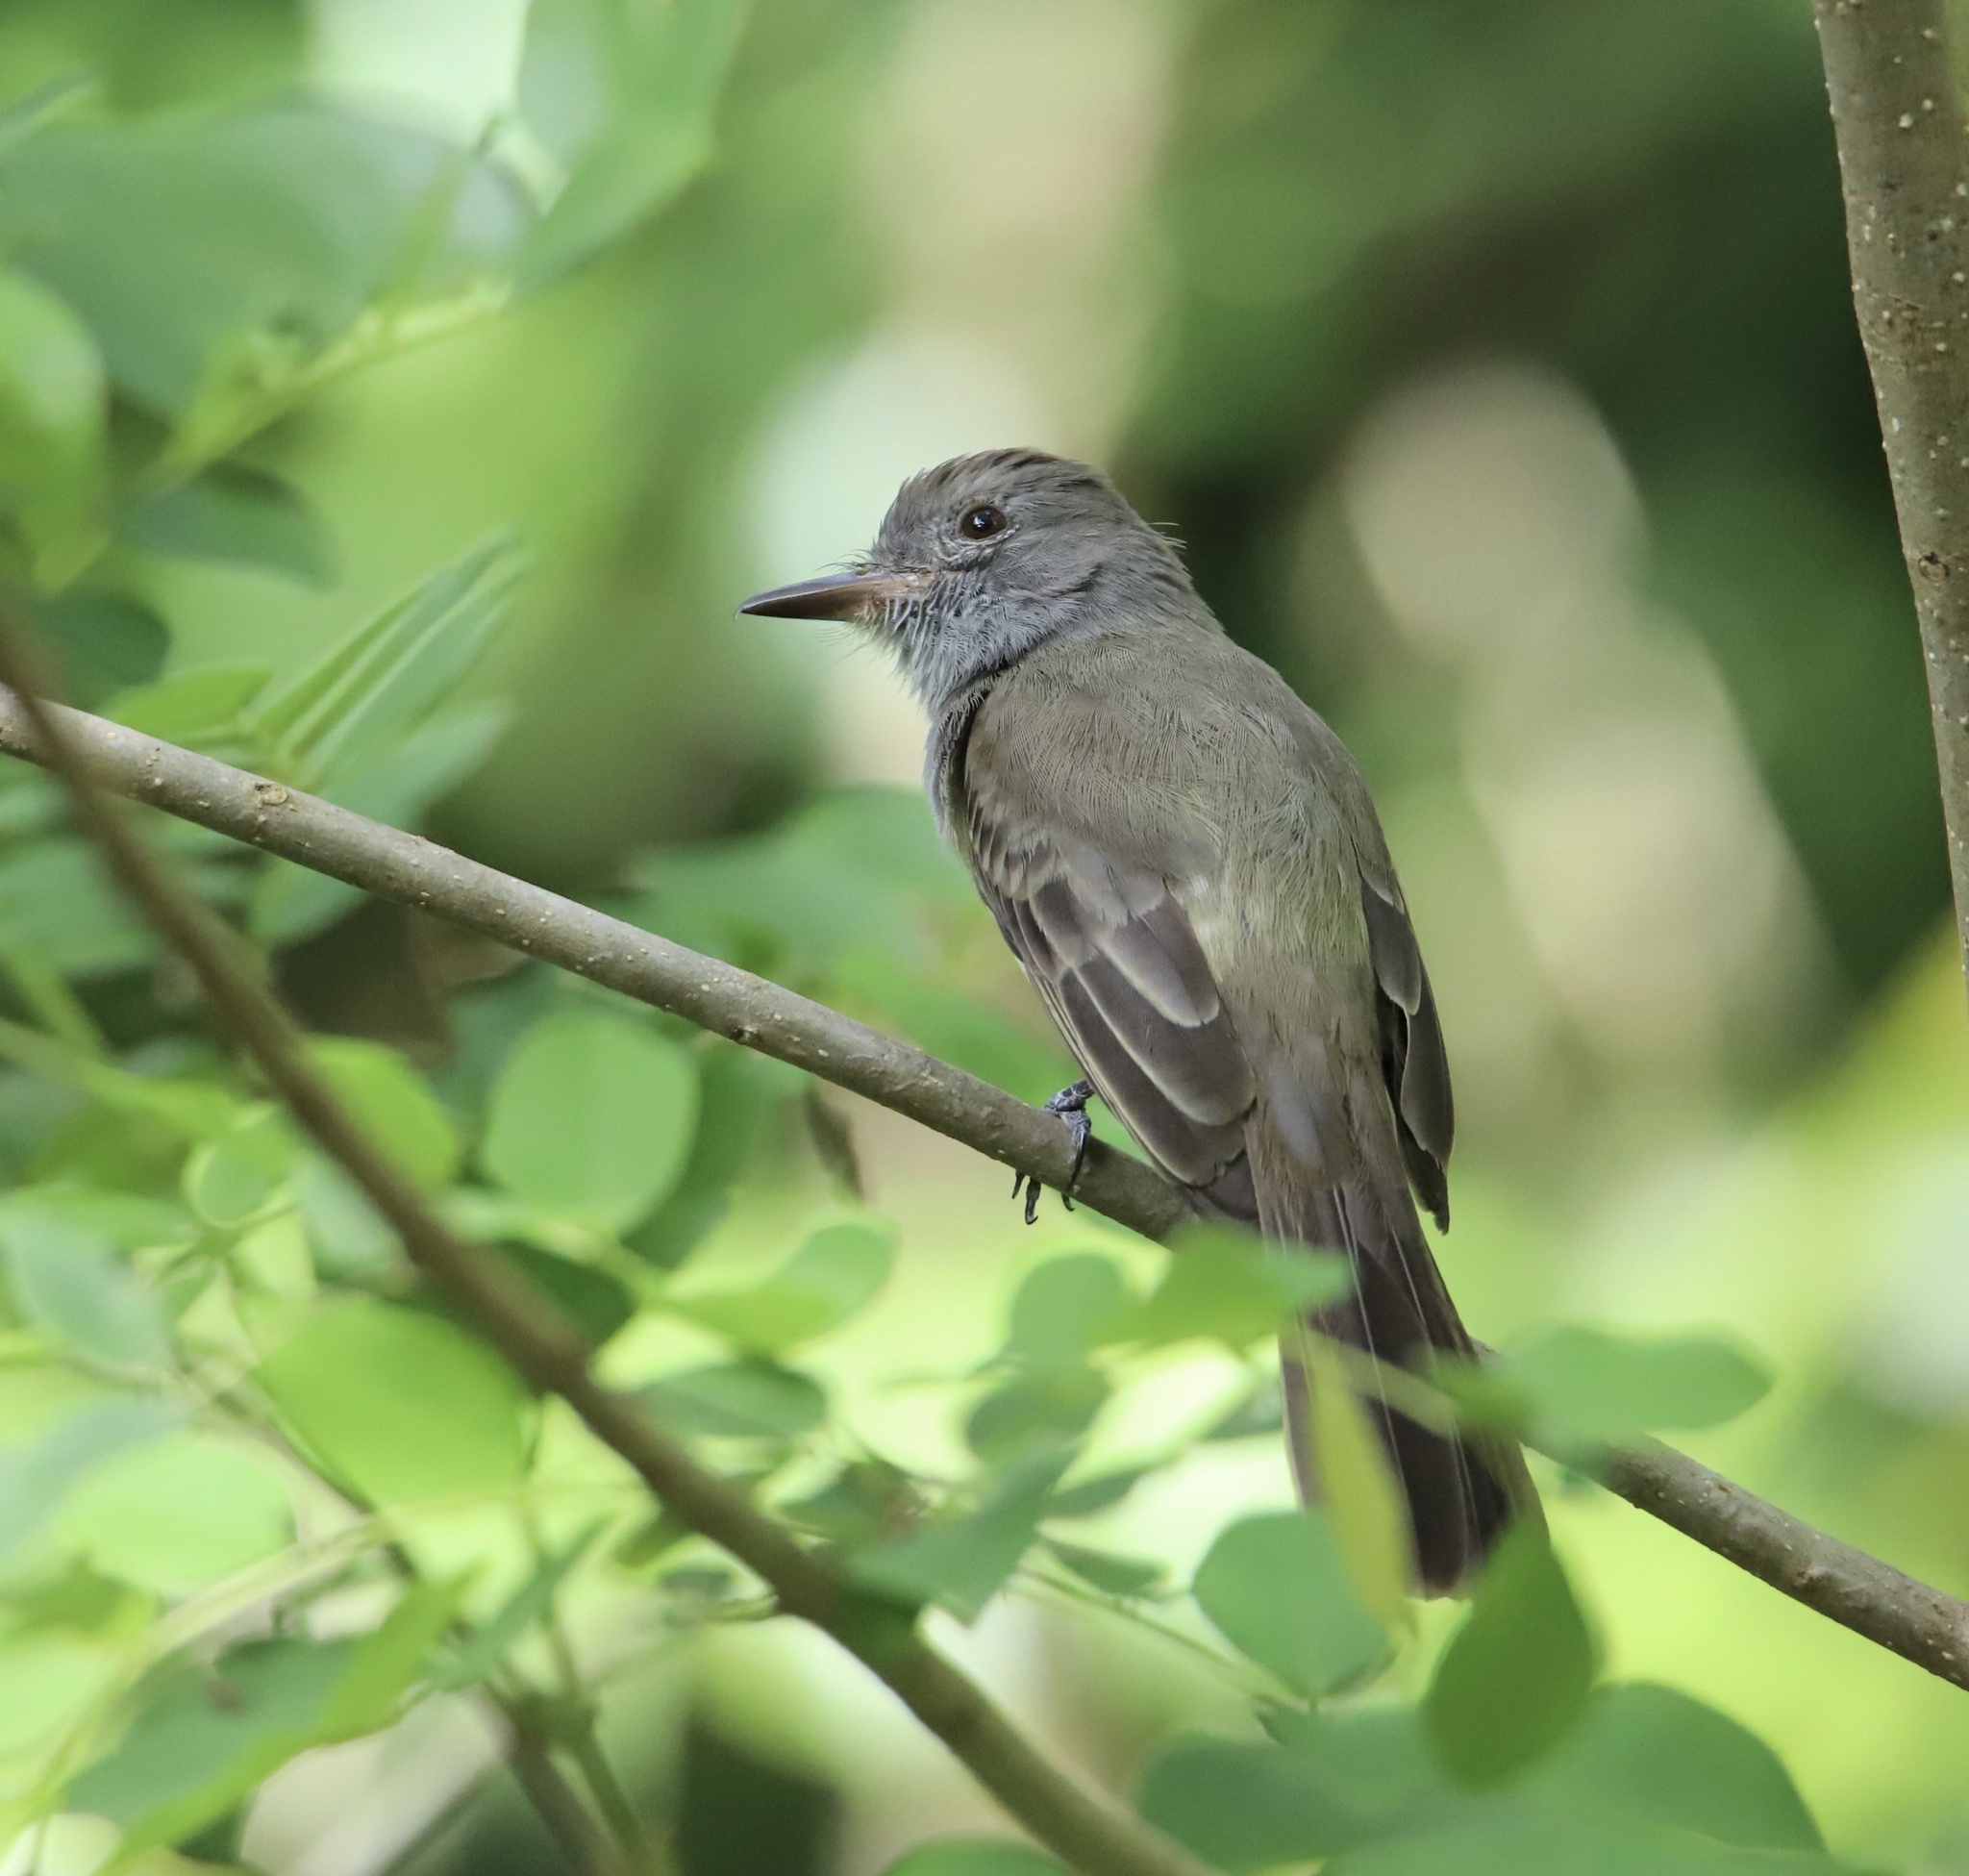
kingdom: Animalia
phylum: Chordata
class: Aves
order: Passeriformes
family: Tyrannidae
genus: Myiarchus
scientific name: Myiarchus panamensis
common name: Panama flycatcher
